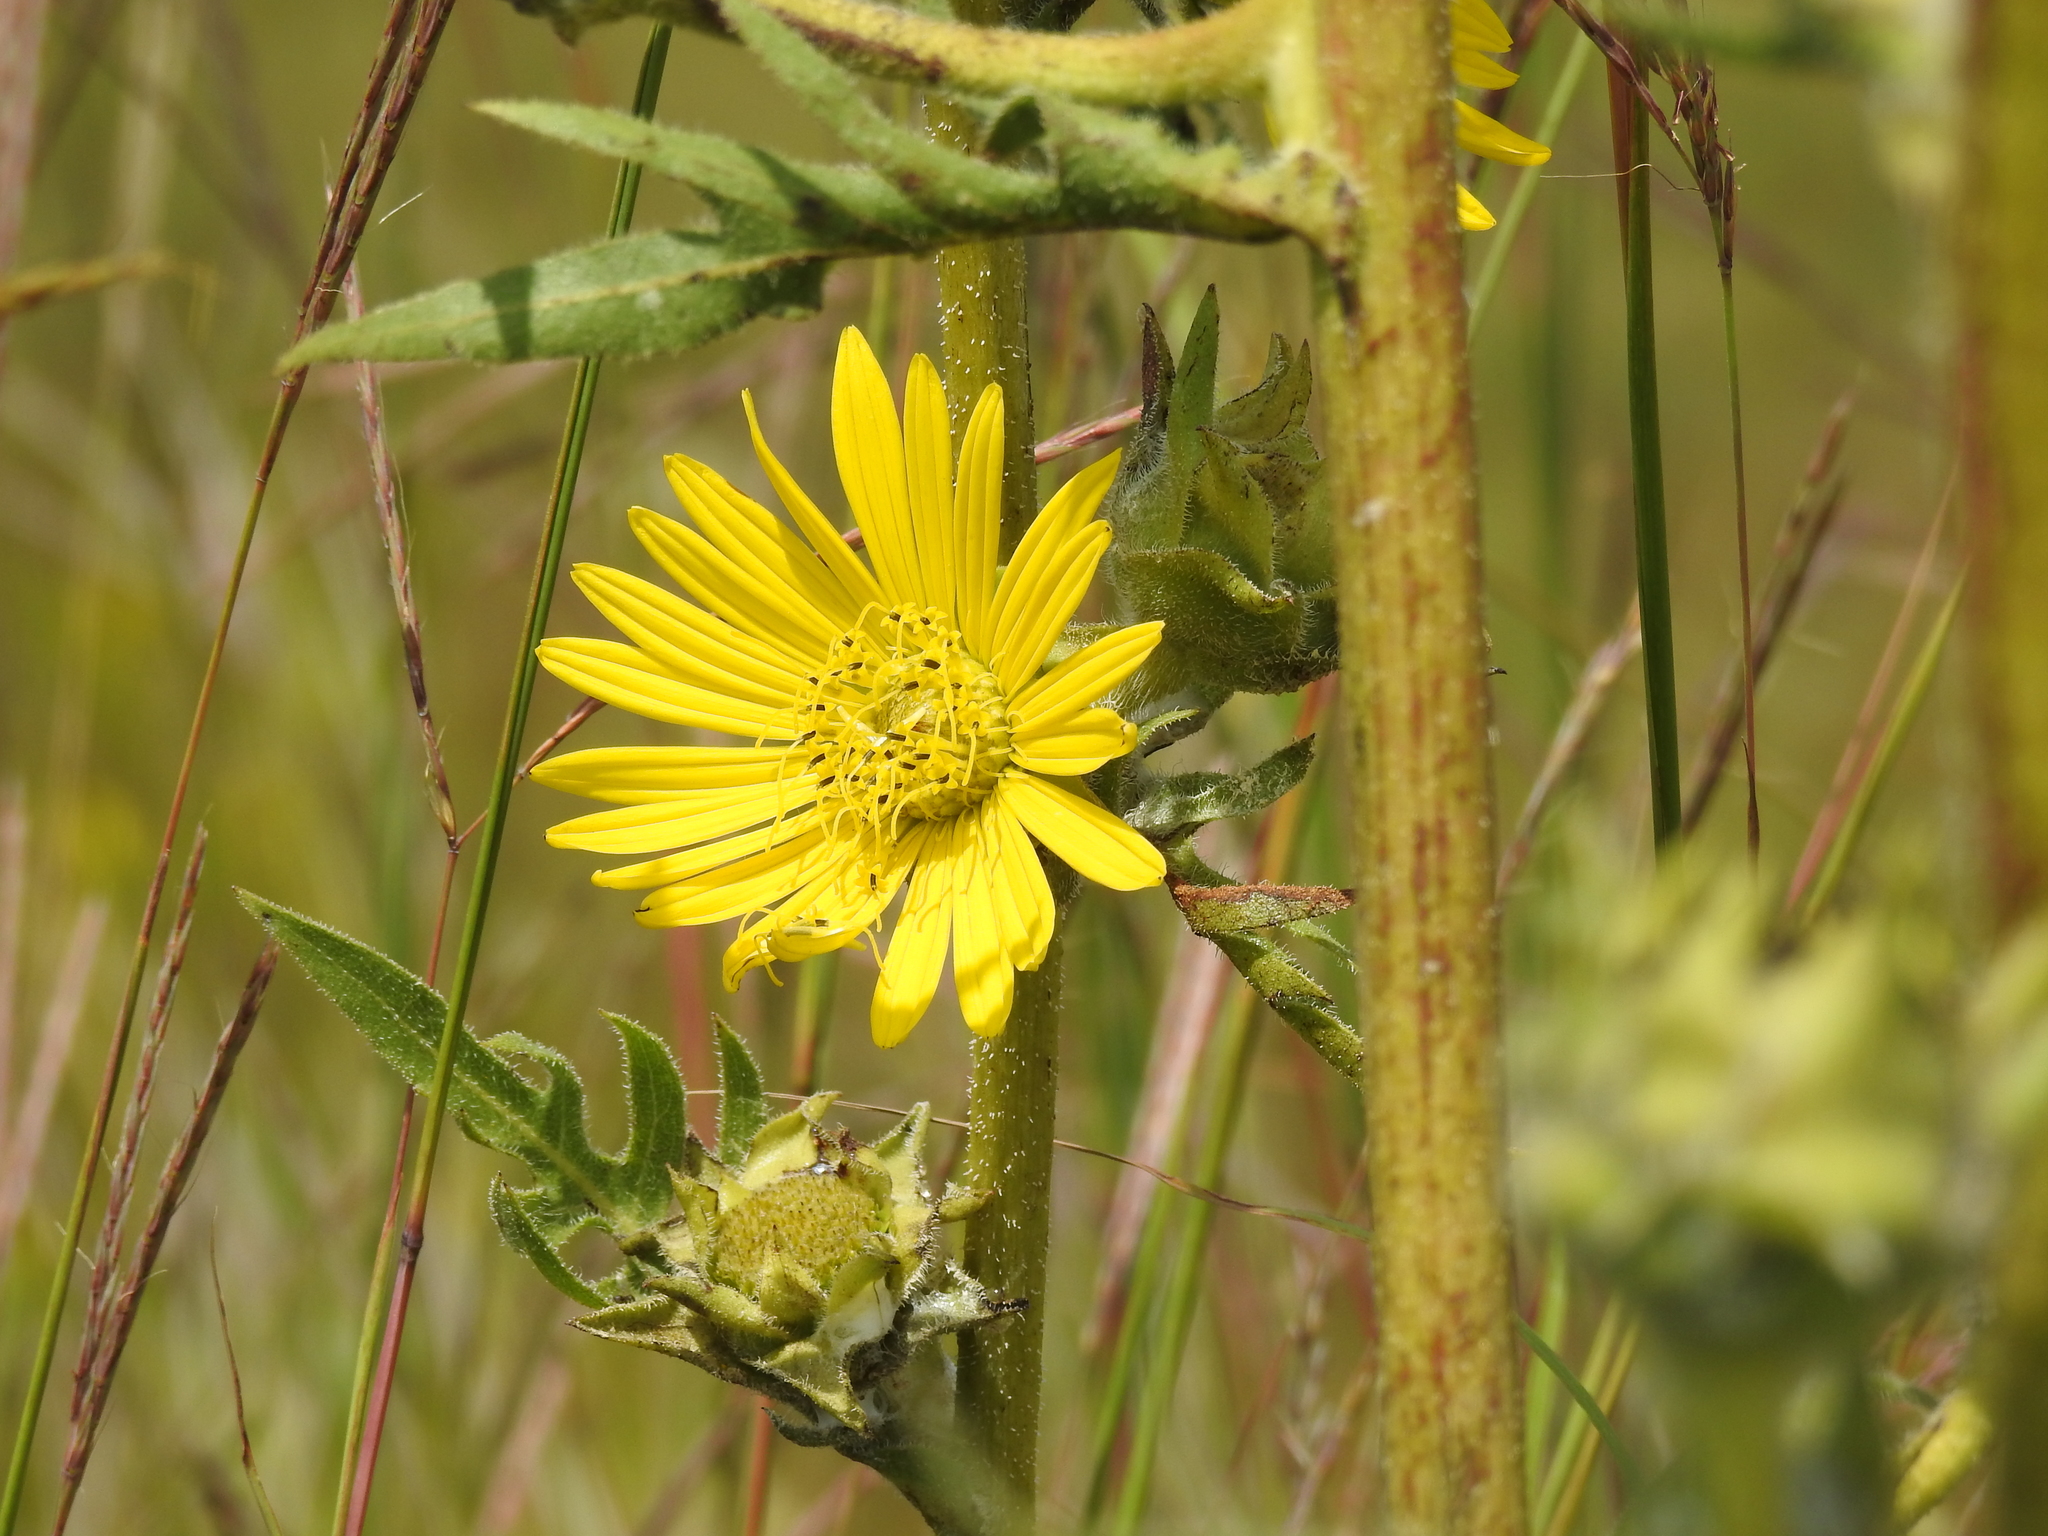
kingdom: Plantae
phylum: Tracheophyta
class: Magnoliopsida
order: Asterales
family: Asteraceae
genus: Silphium
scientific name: Silphium laciniatum
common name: Polarplant
